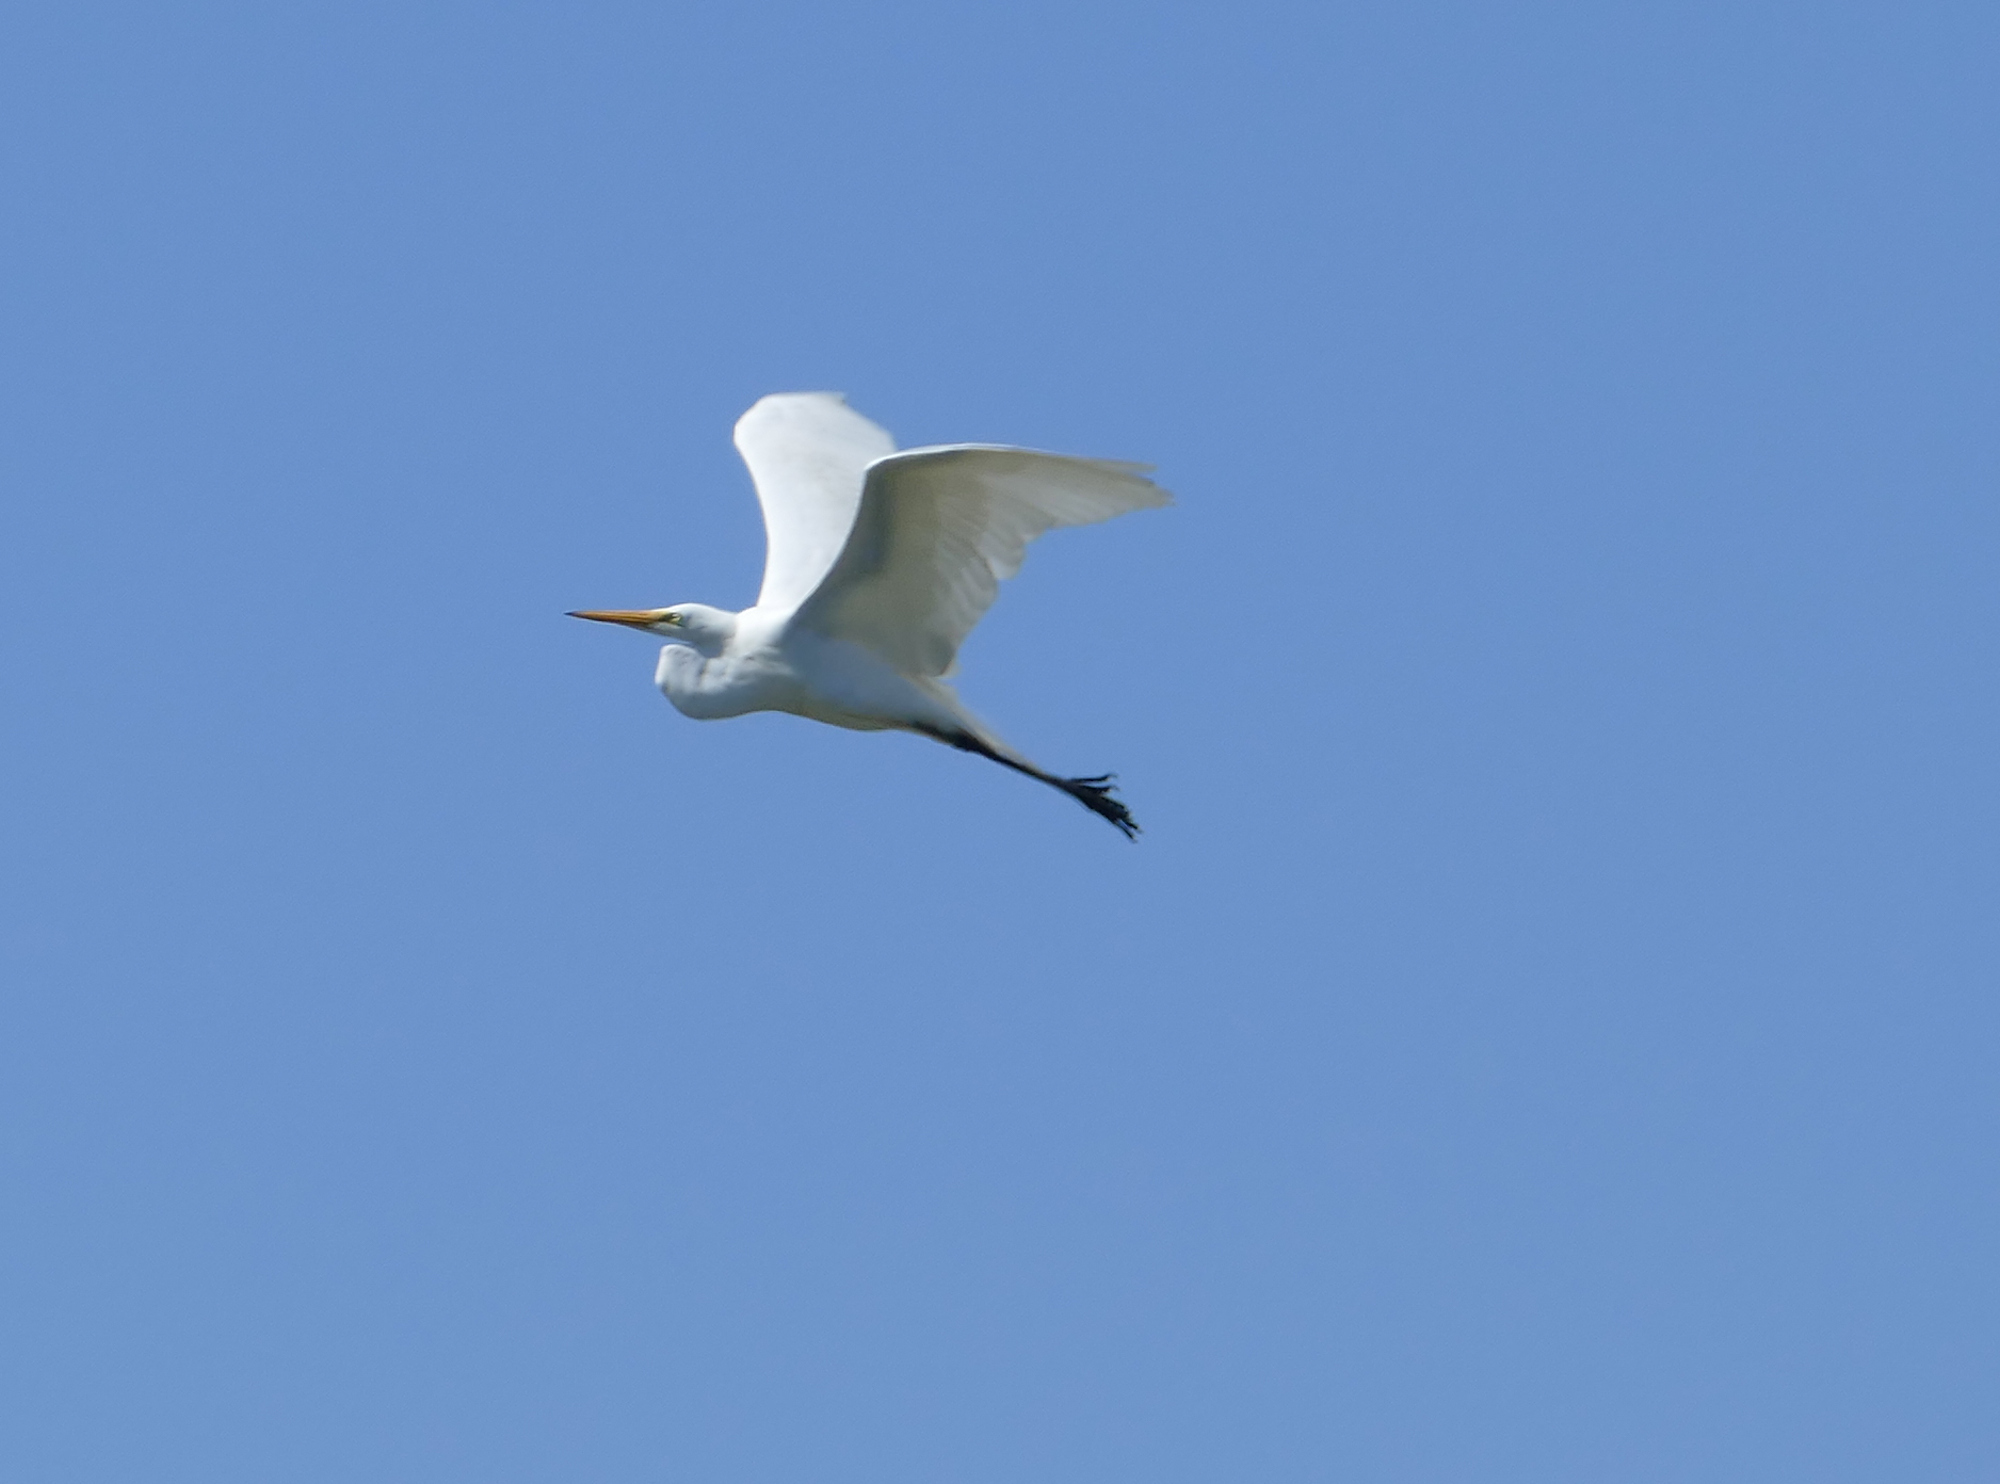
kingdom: Animalia
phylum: Chordata
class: Aves
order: Pelecaniformes
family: Ardeidae
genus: Ardea
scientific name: Ardea alba
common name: Great egret
